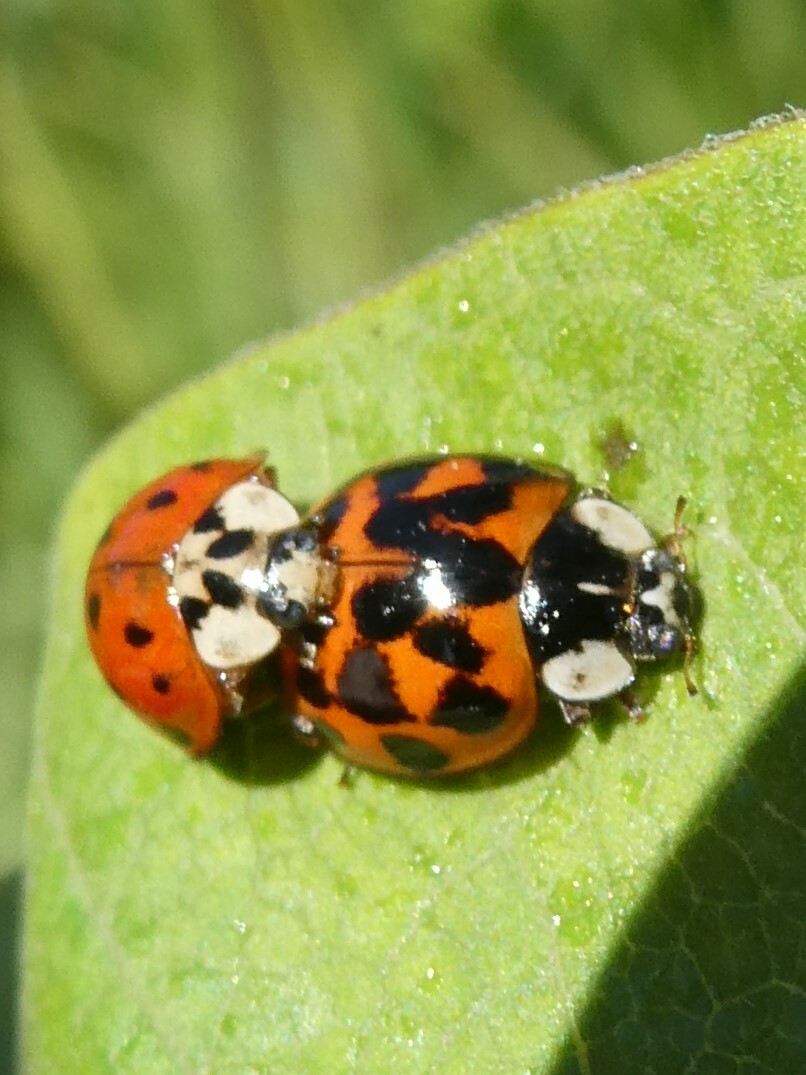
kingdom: Animalia
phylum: Arthropoda
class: Insecta
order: Coleoptera
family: Coccinellidae
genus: Harmonia
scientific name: Harmonia axyridis
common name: Harlequin ladybird
